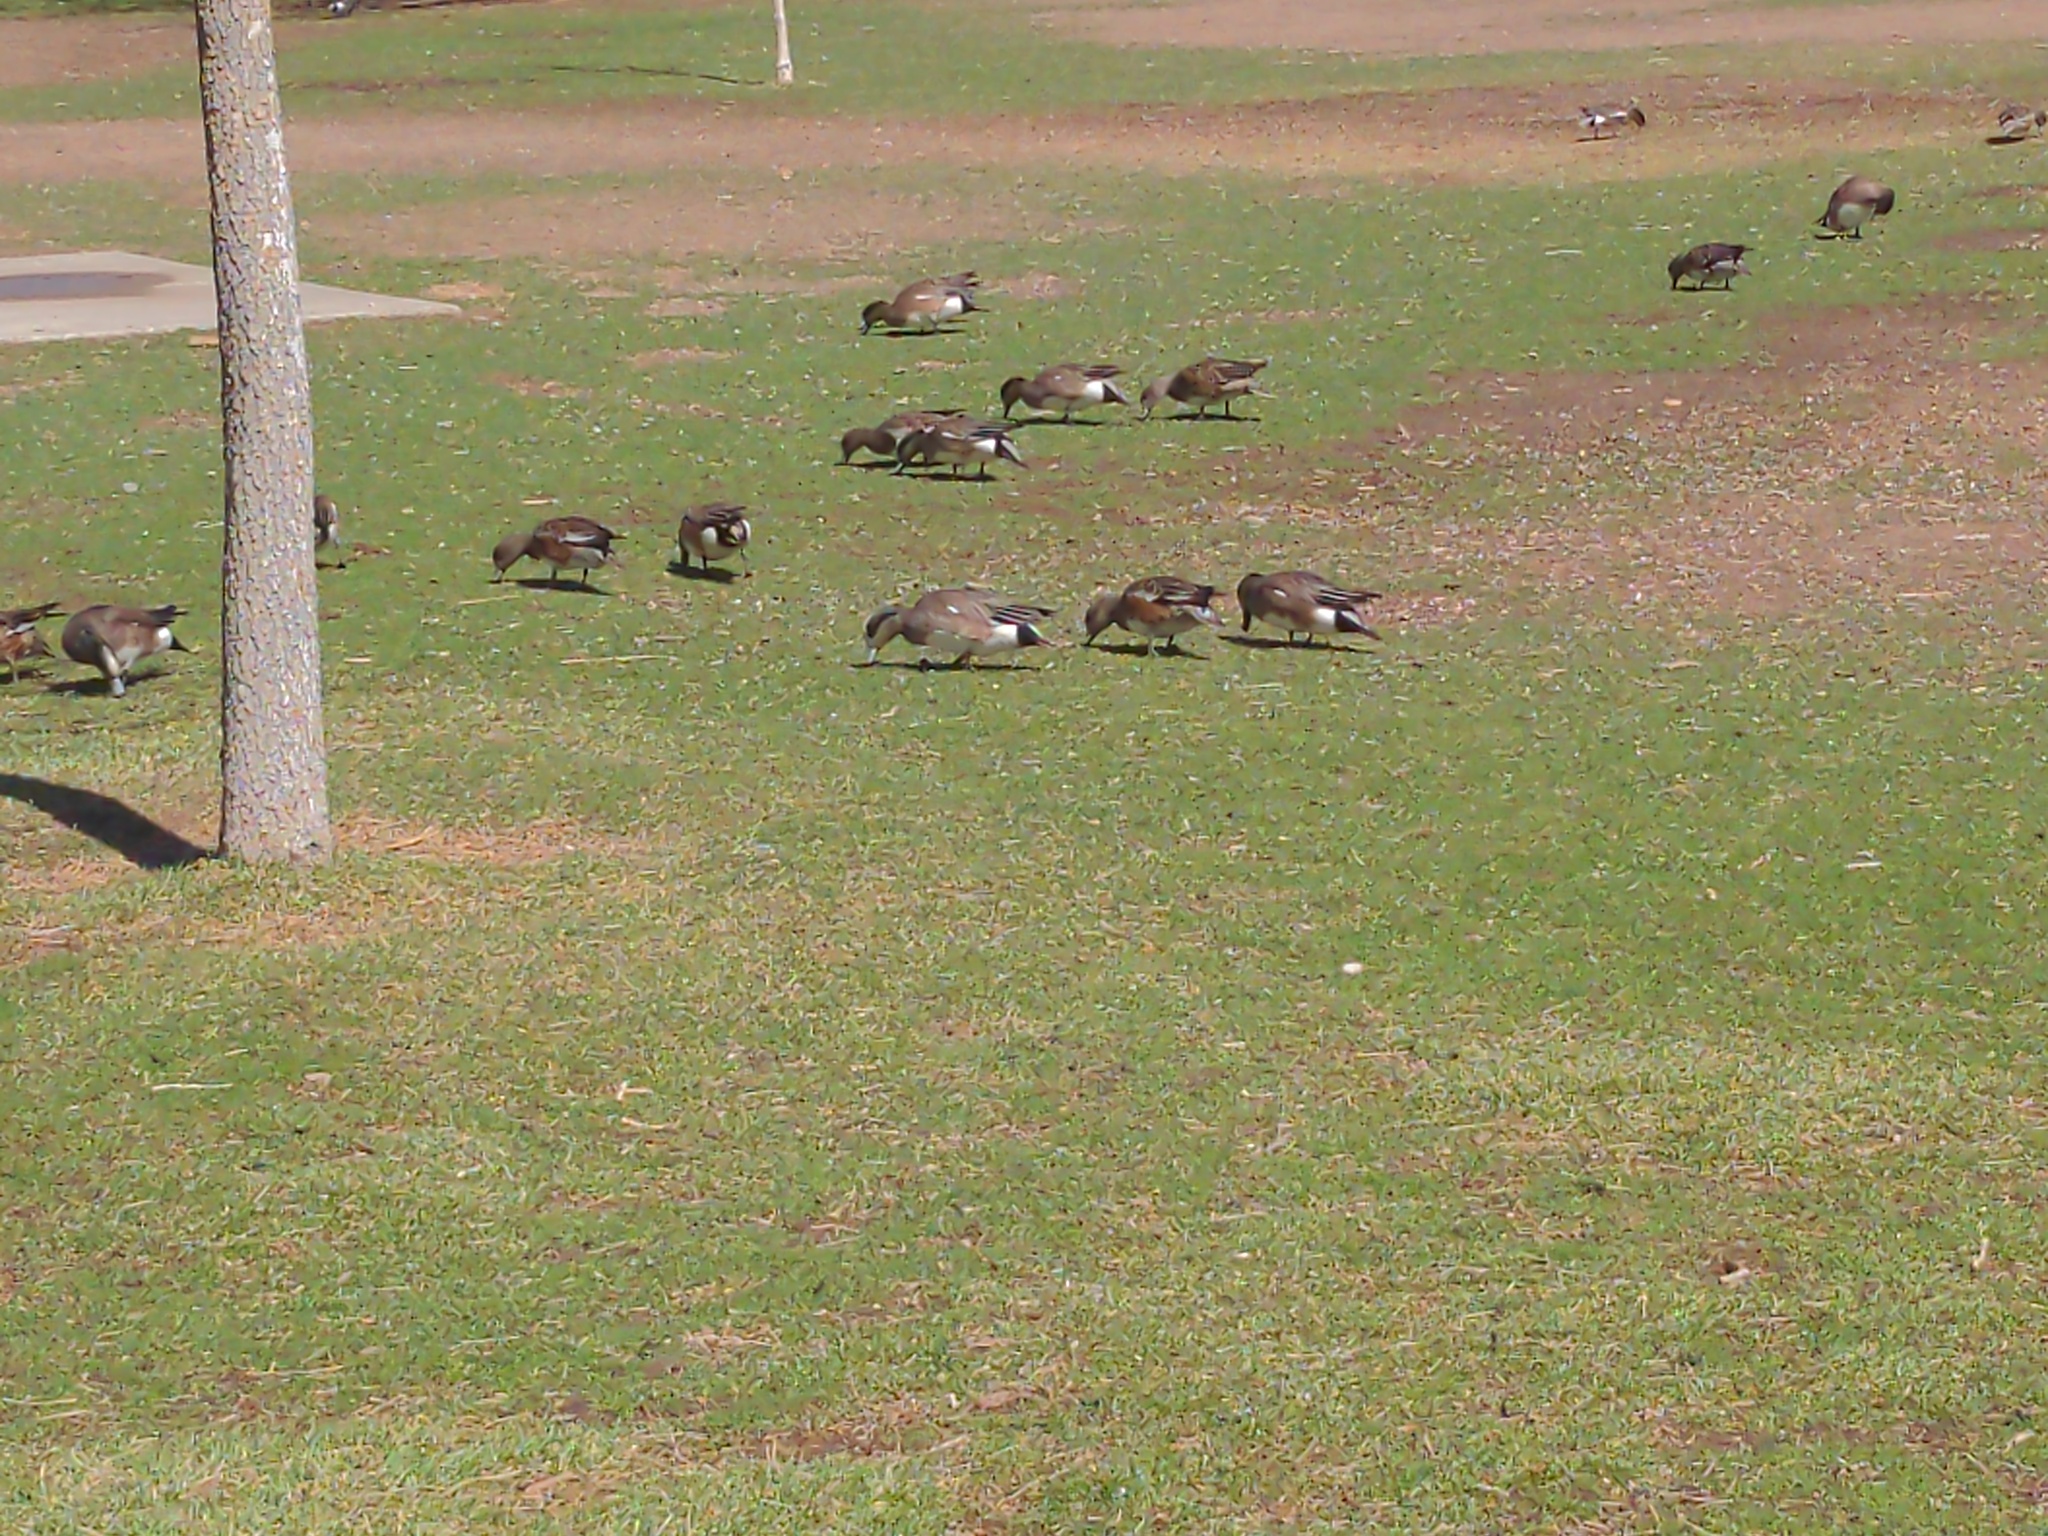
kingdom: Animalia
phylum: Chordata
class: Aves
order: Anseriformes
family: Anatidae
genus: Mareca
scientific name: Mareca americana
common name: American wigeon
